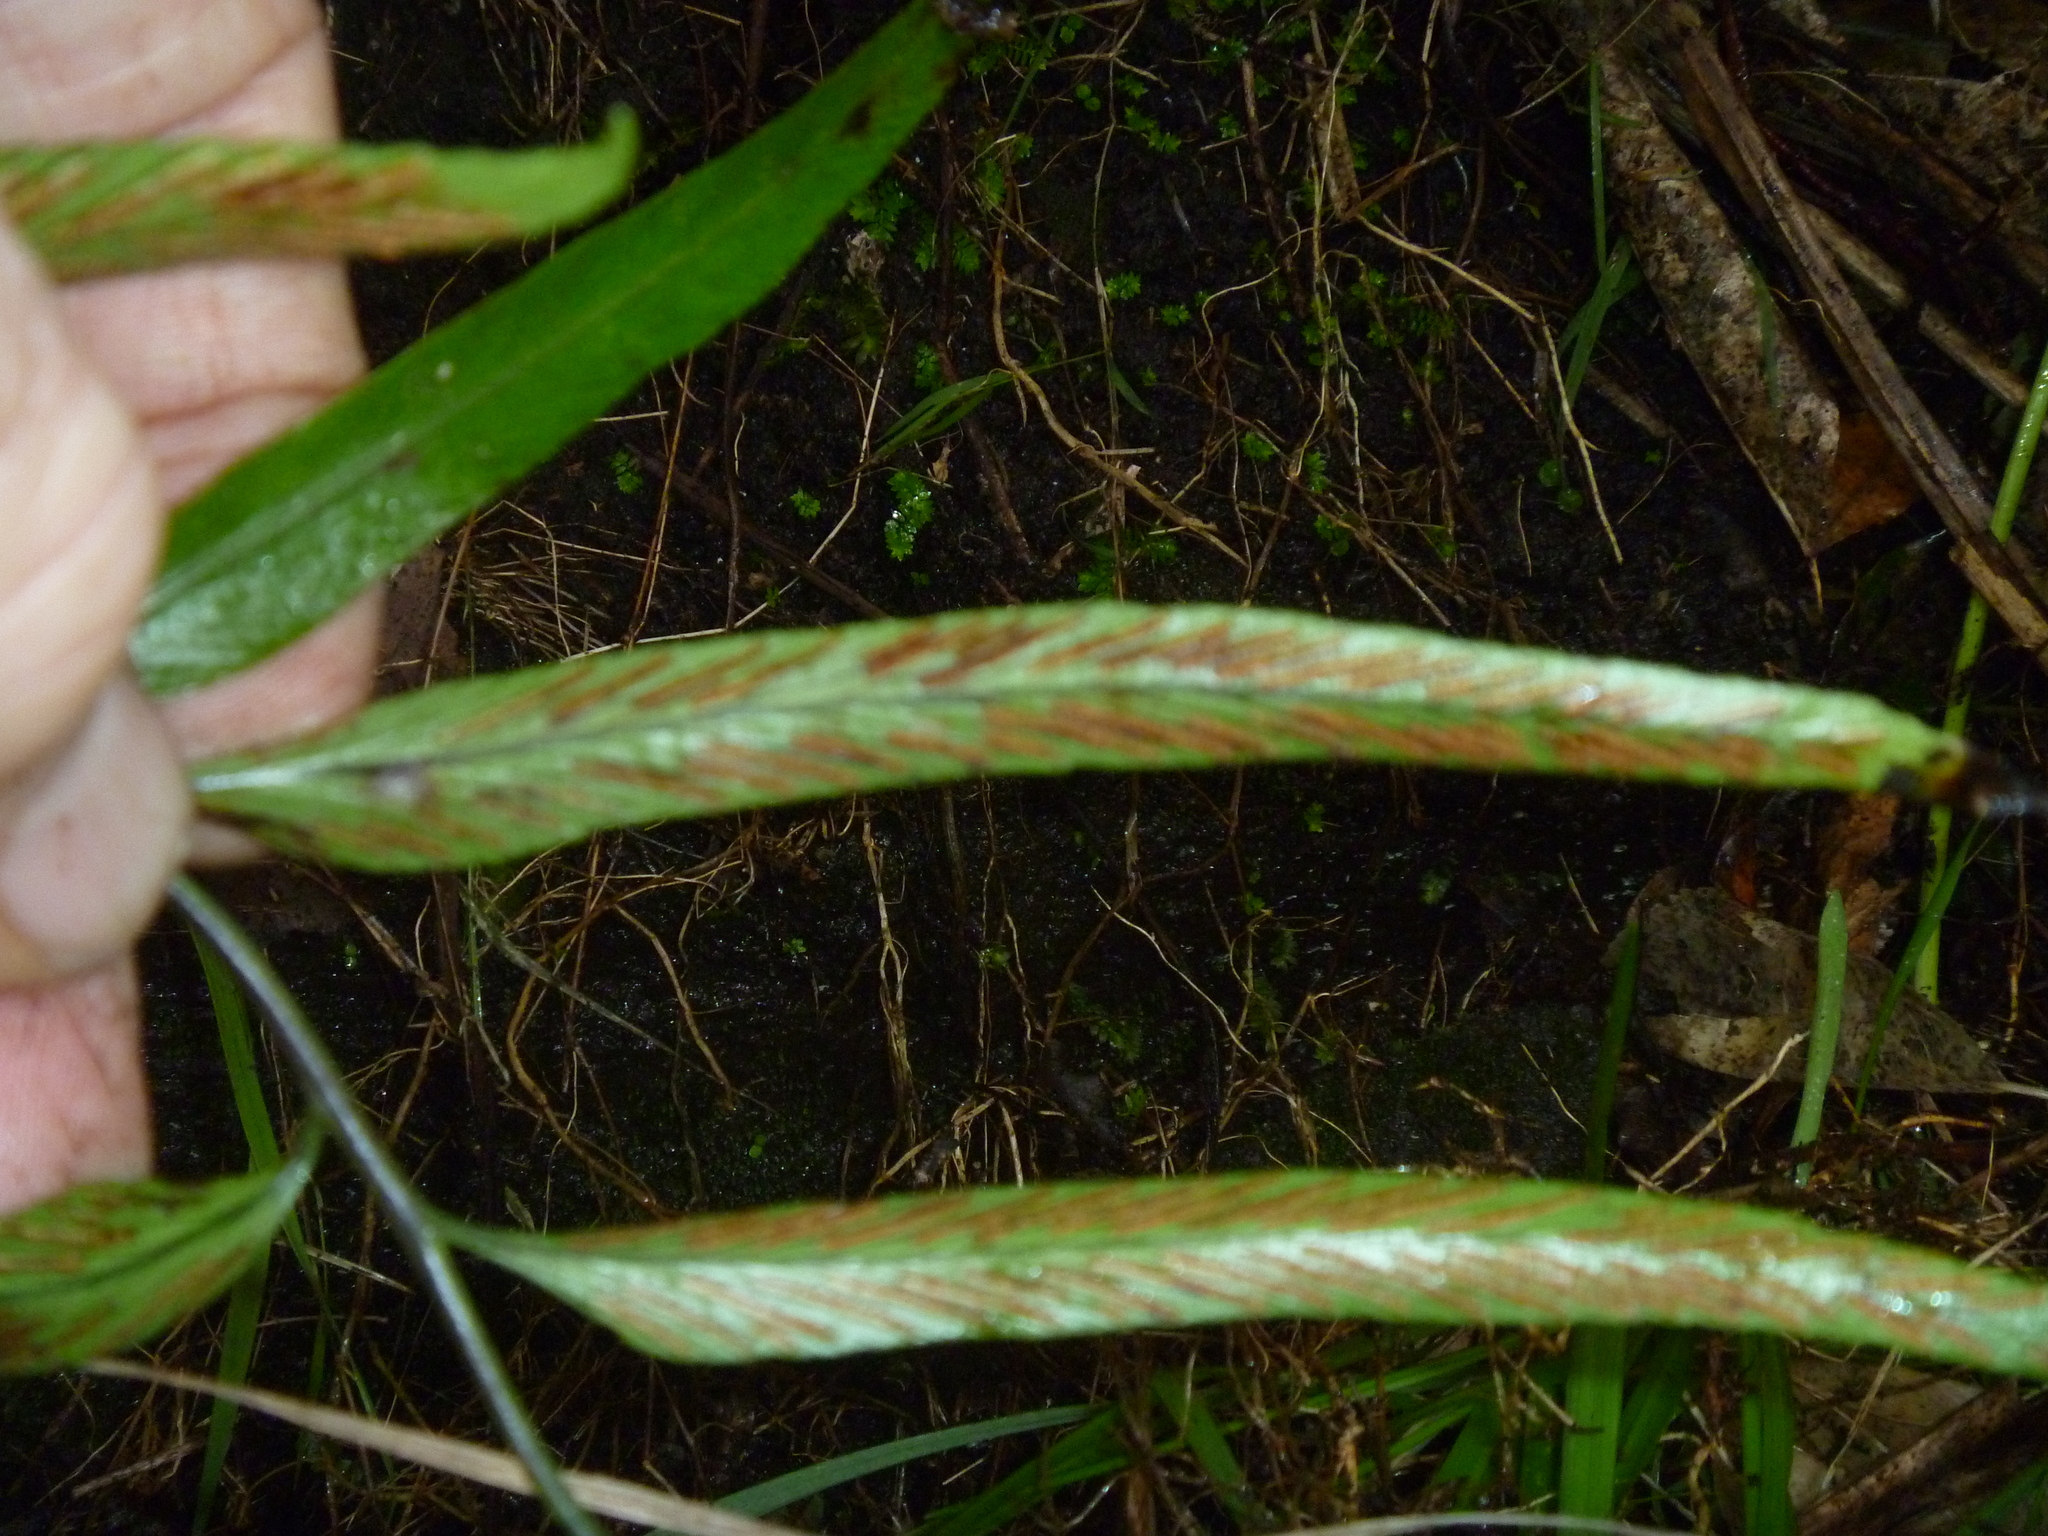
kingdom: Plantae
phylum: Tracheophyta
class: Polypodiopsida
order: Polypodiales
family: Aspleniaceae
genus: Asplenium
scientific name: Asplenium oblongifolium
